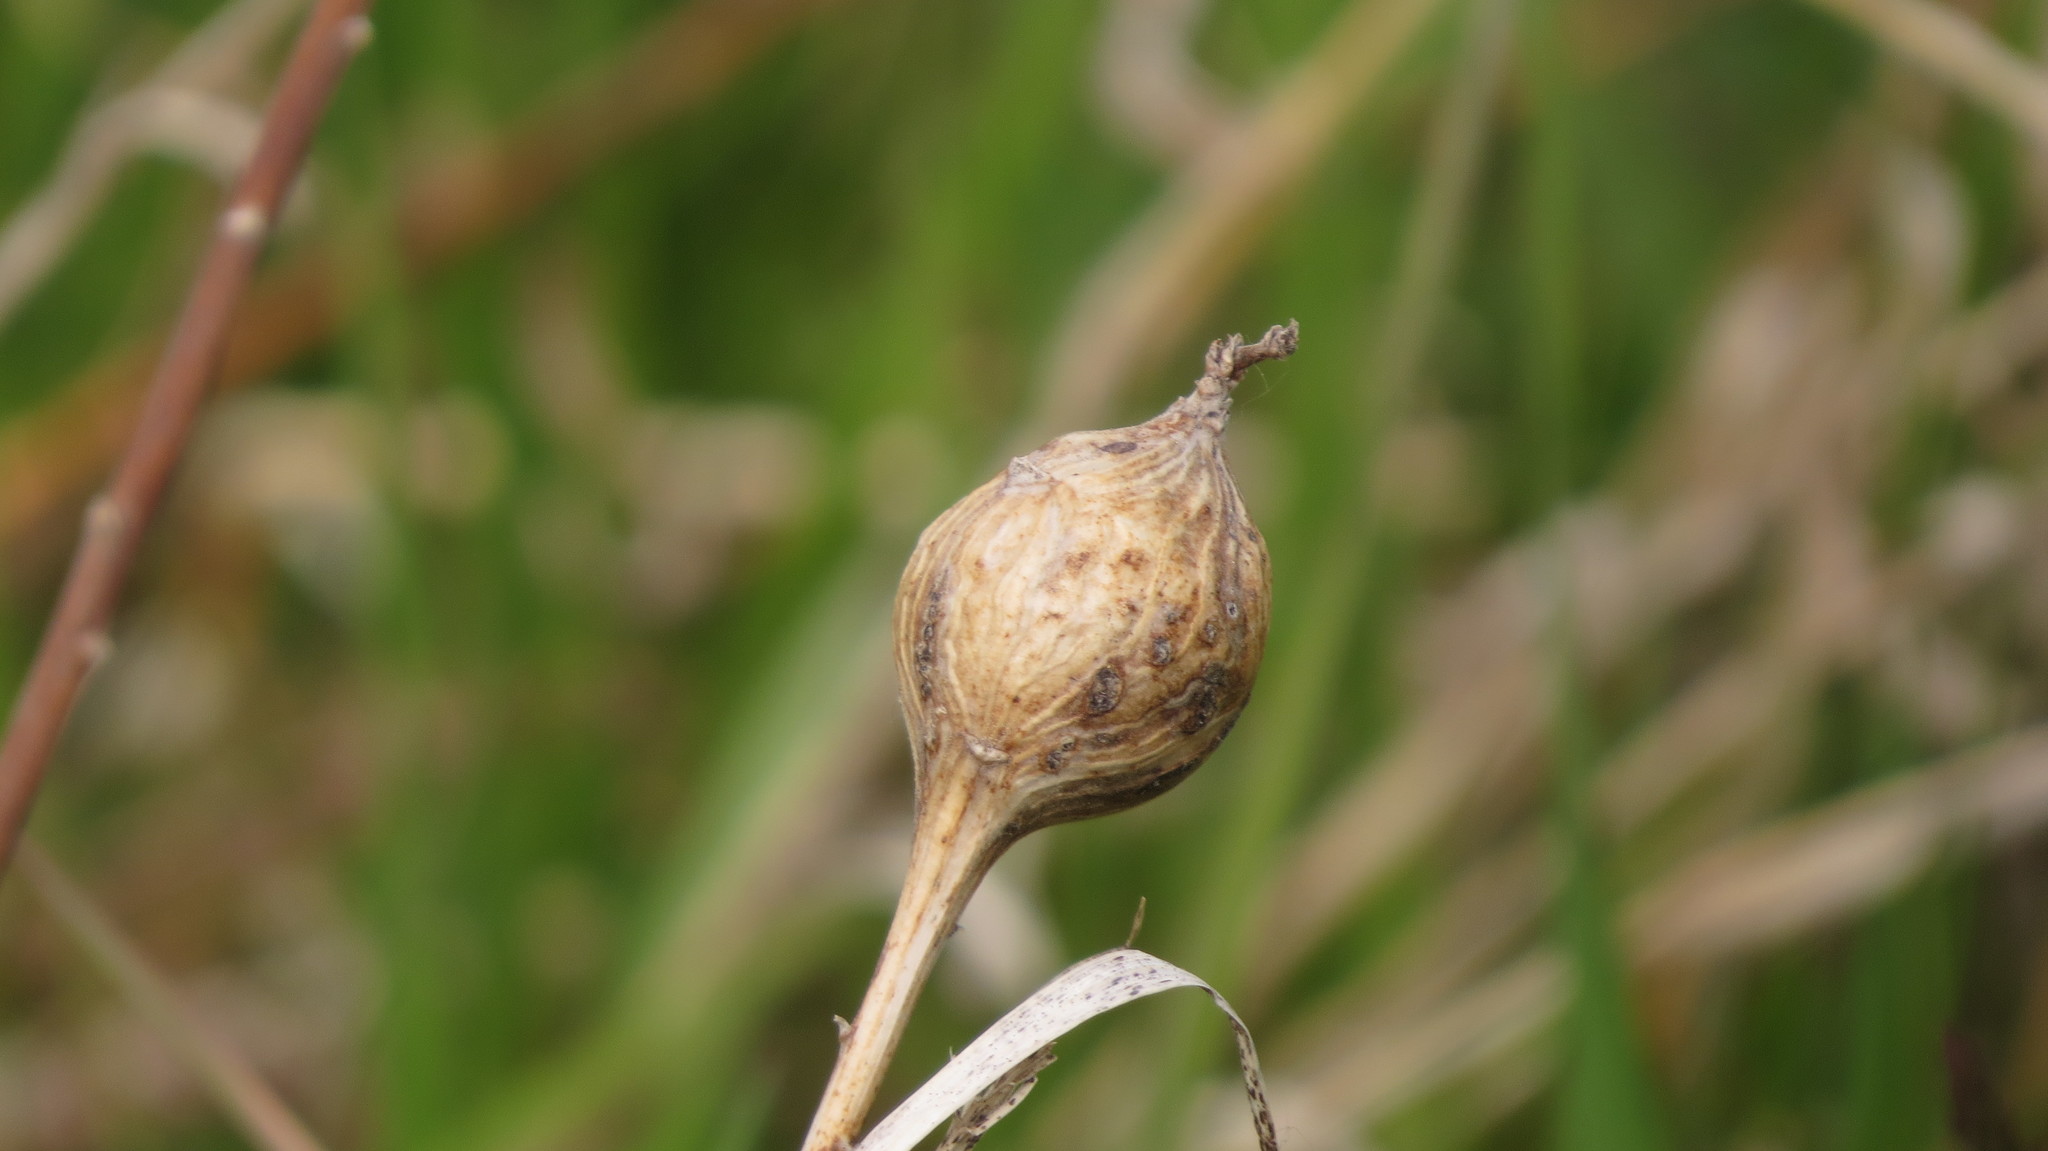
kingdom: Animalia
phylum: Arthropoda
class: Insecta
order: Diptera
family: Tephritidae
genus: Eurosta
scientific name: Eurosta solidaginis
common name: Goldenrod gall fly
